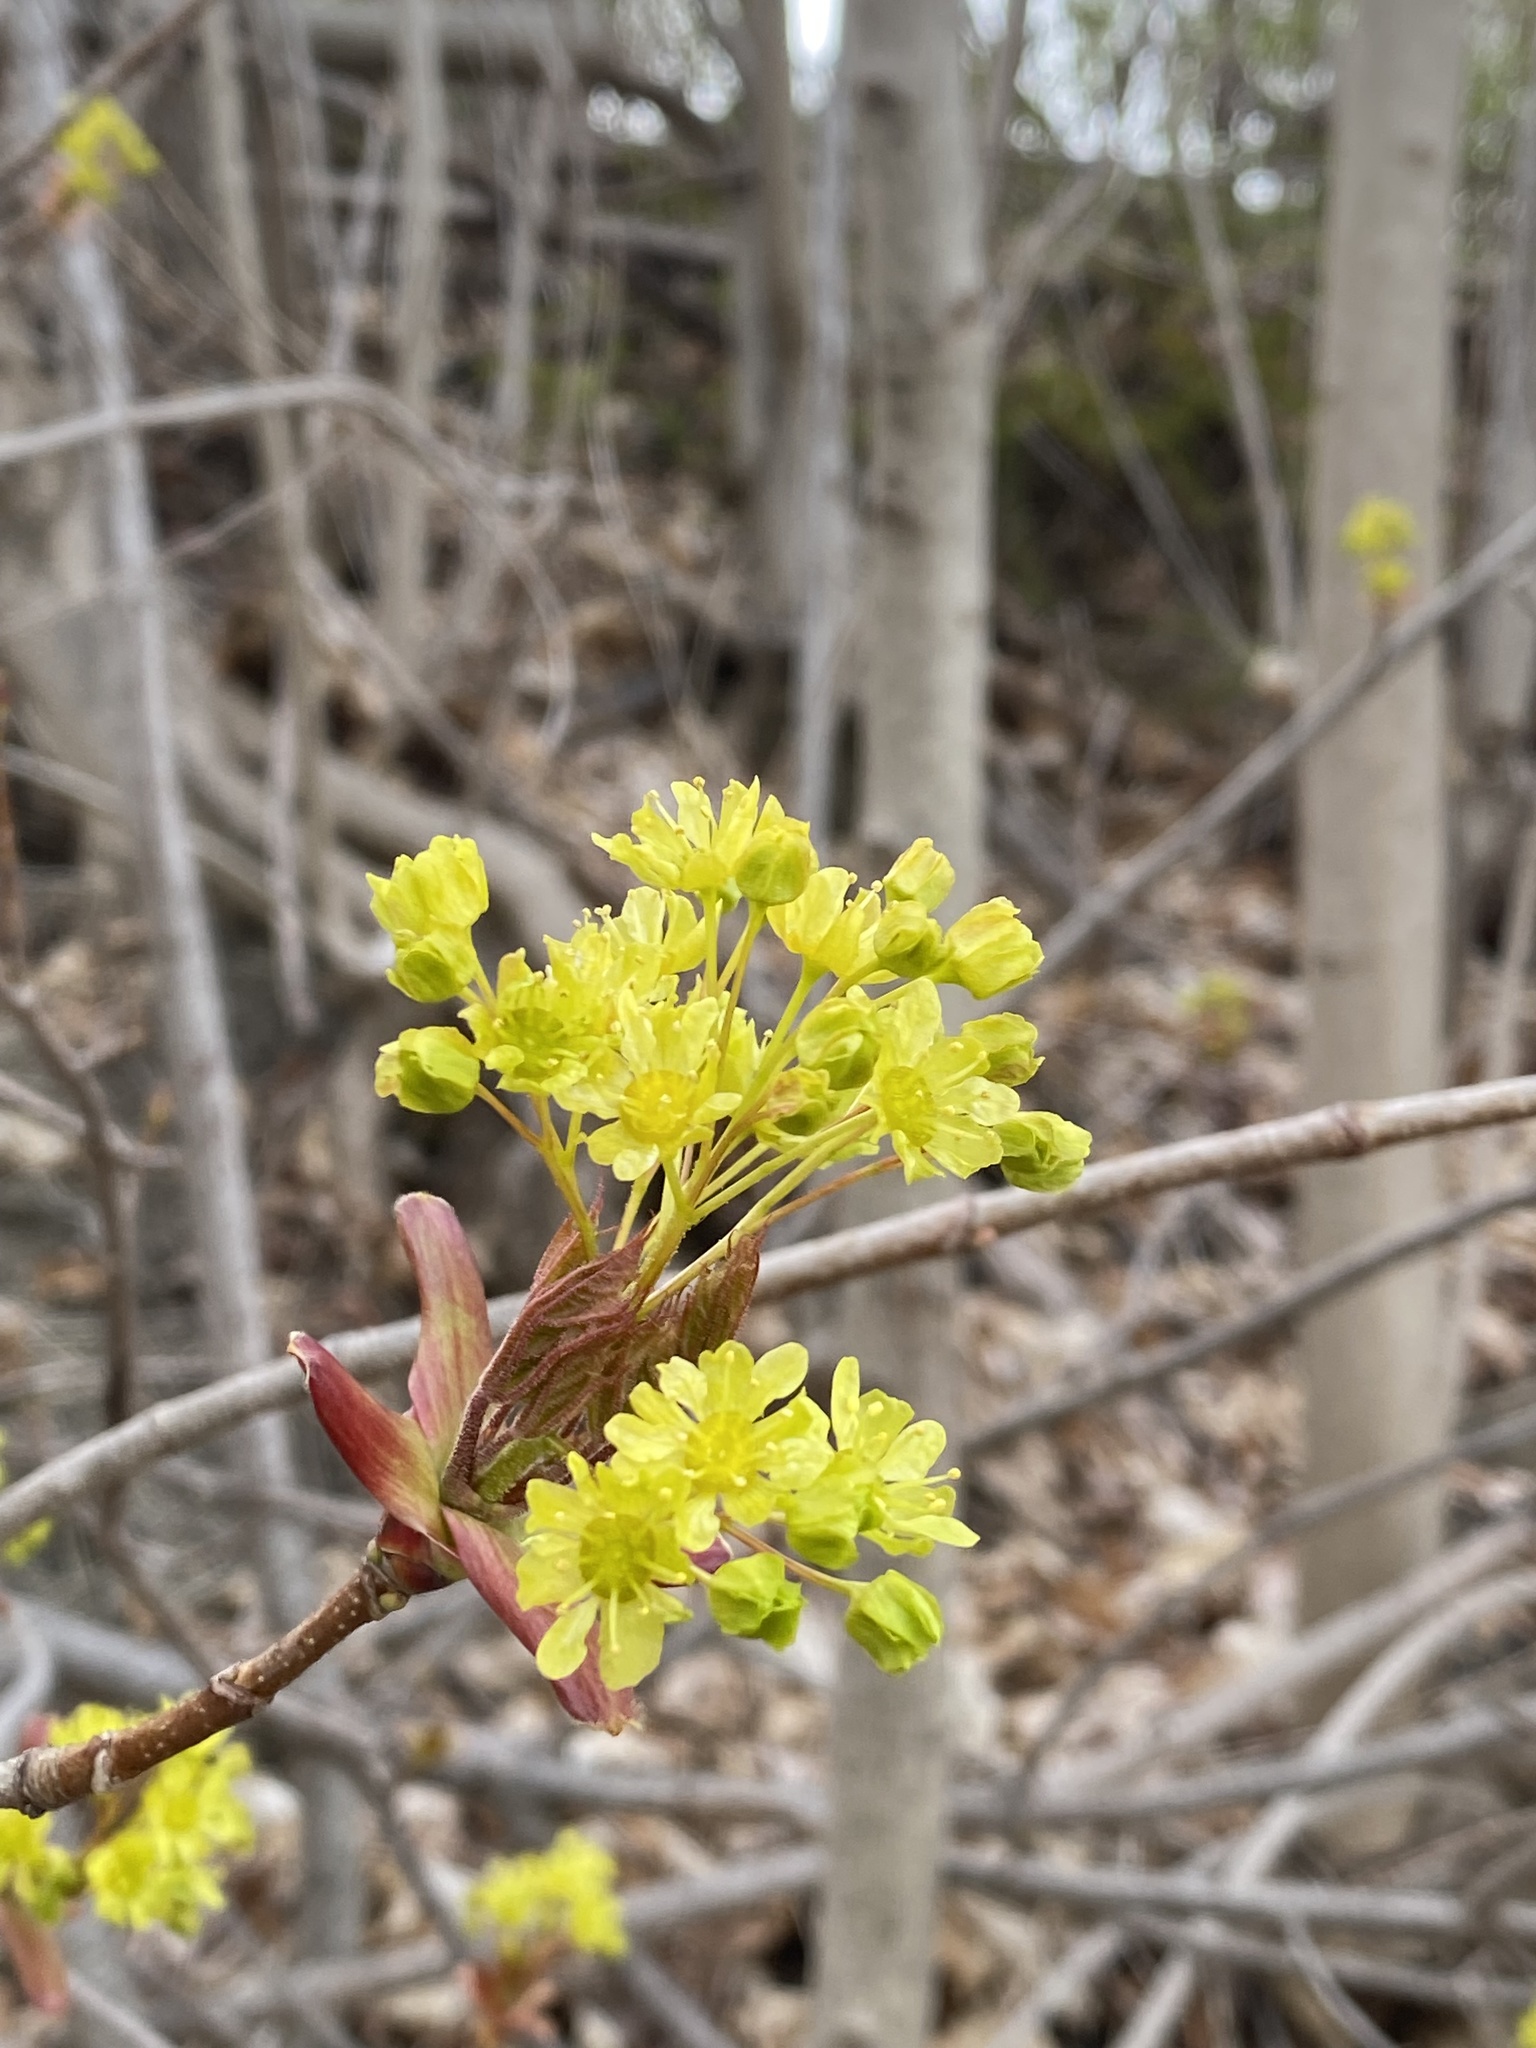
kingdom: Plantae
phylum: Tracheophyta
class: Magnoliopsida
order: Sapindales
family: Sapindaceae
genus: Acer
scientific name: Acer platanoides
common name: Norway maple
